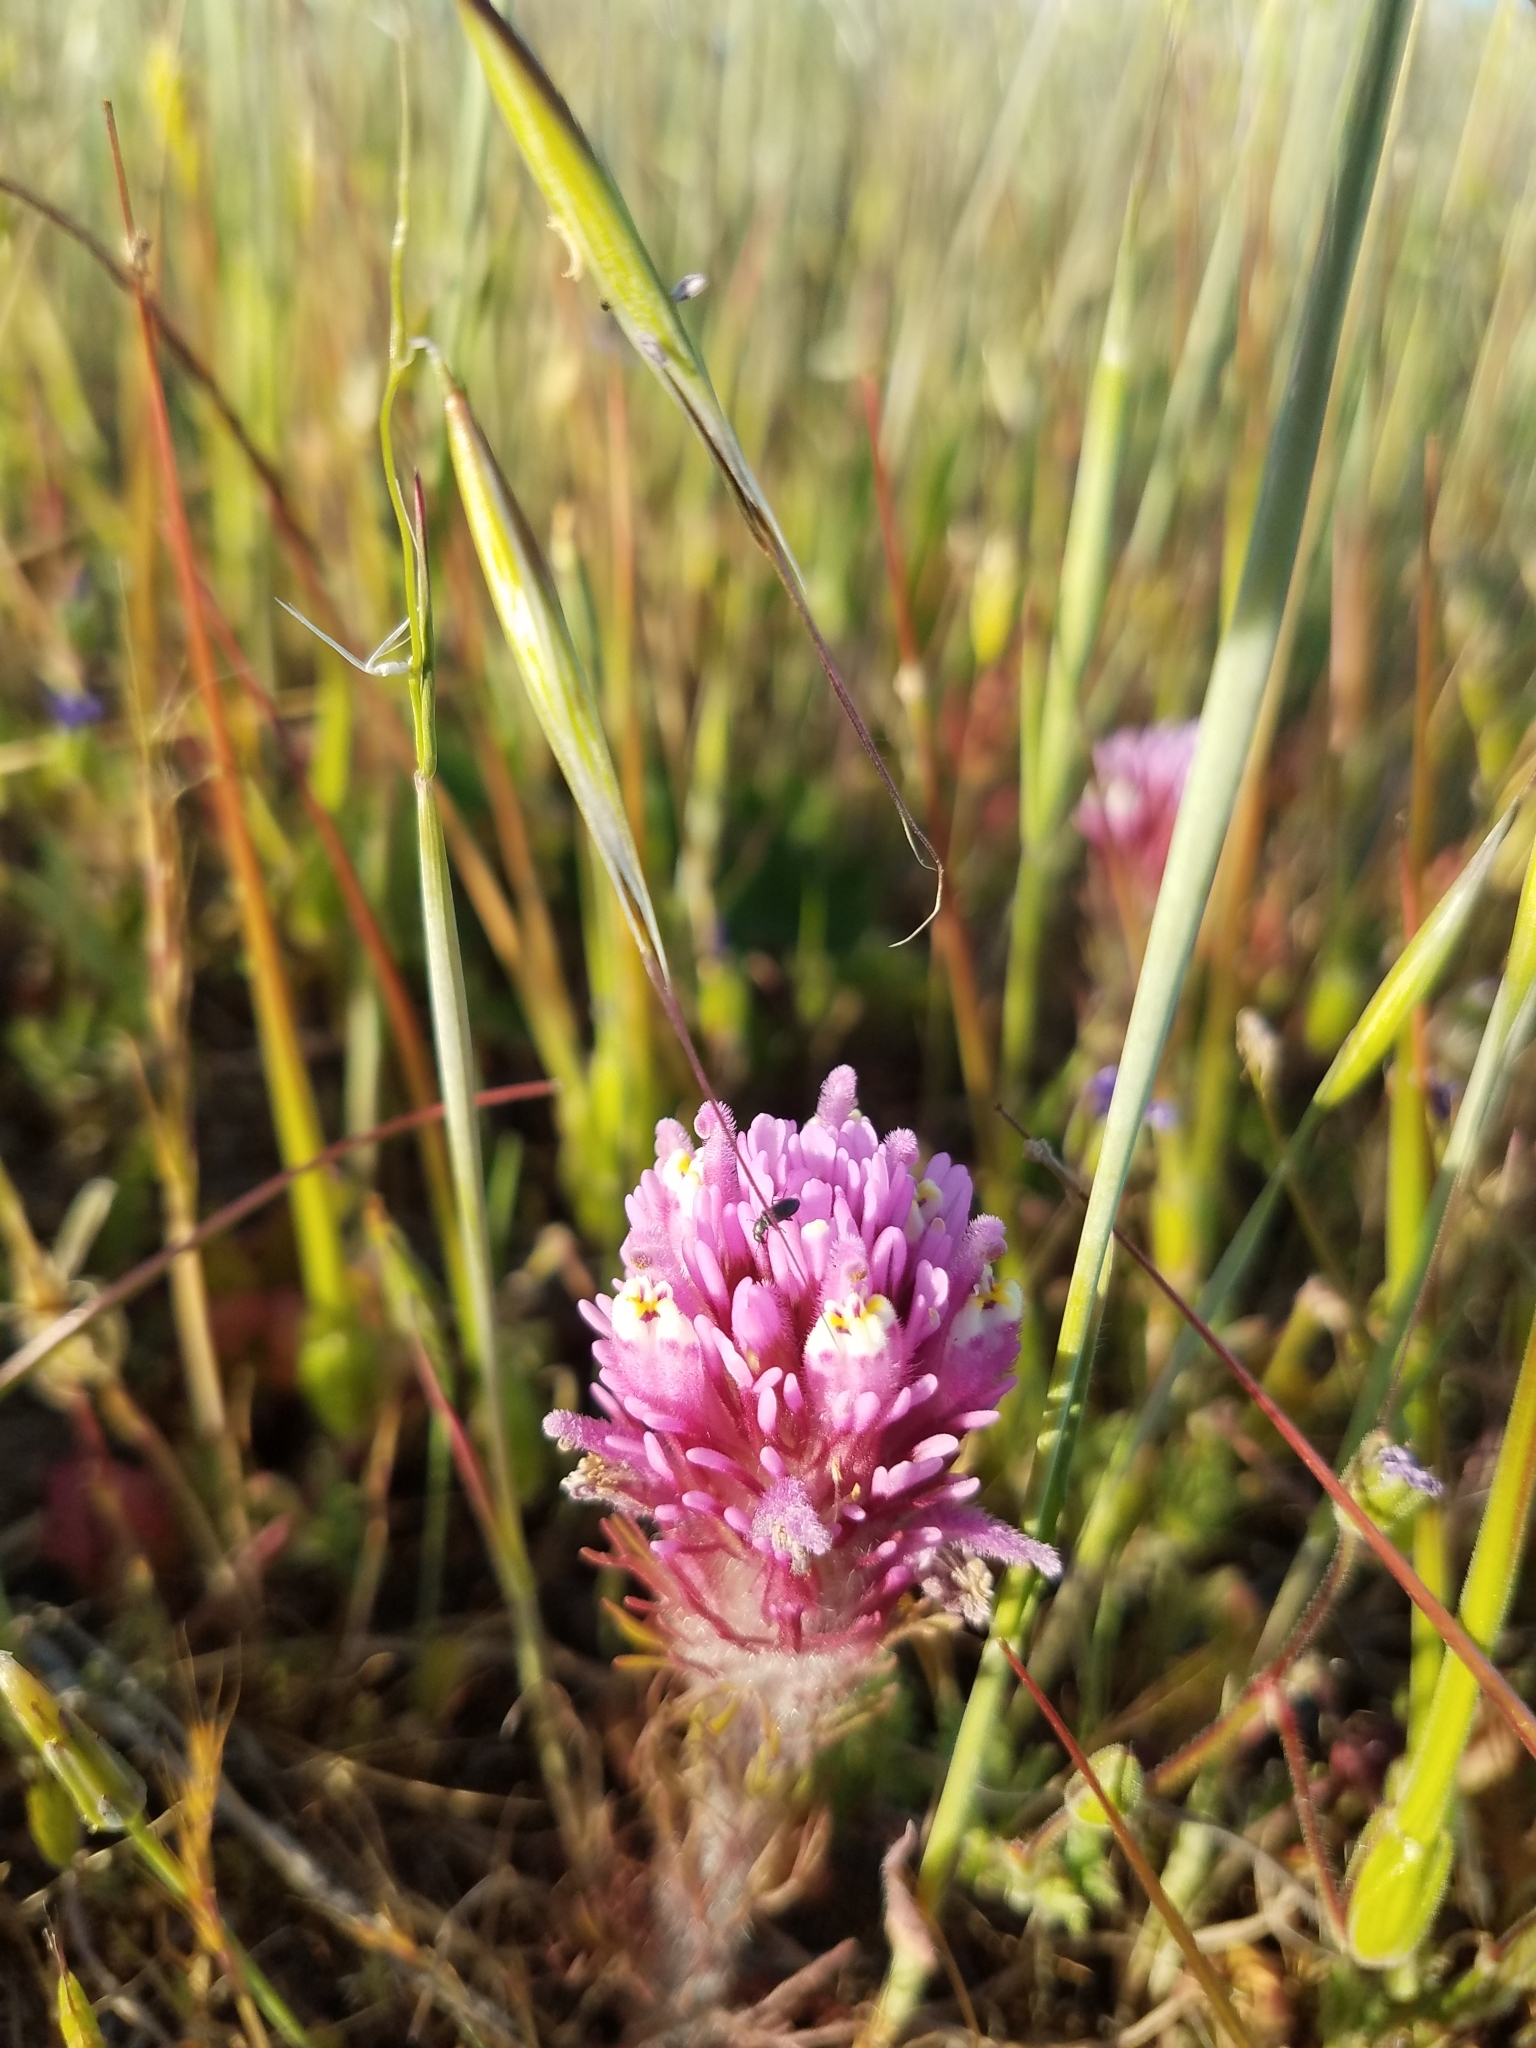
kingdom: Plantae
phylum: Tracheophyta
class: Magnoliopsida
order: Lamiales
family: Orobanchaceae
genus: Castilleja
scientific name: Castilleja exserta
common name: Purple owl-clover
